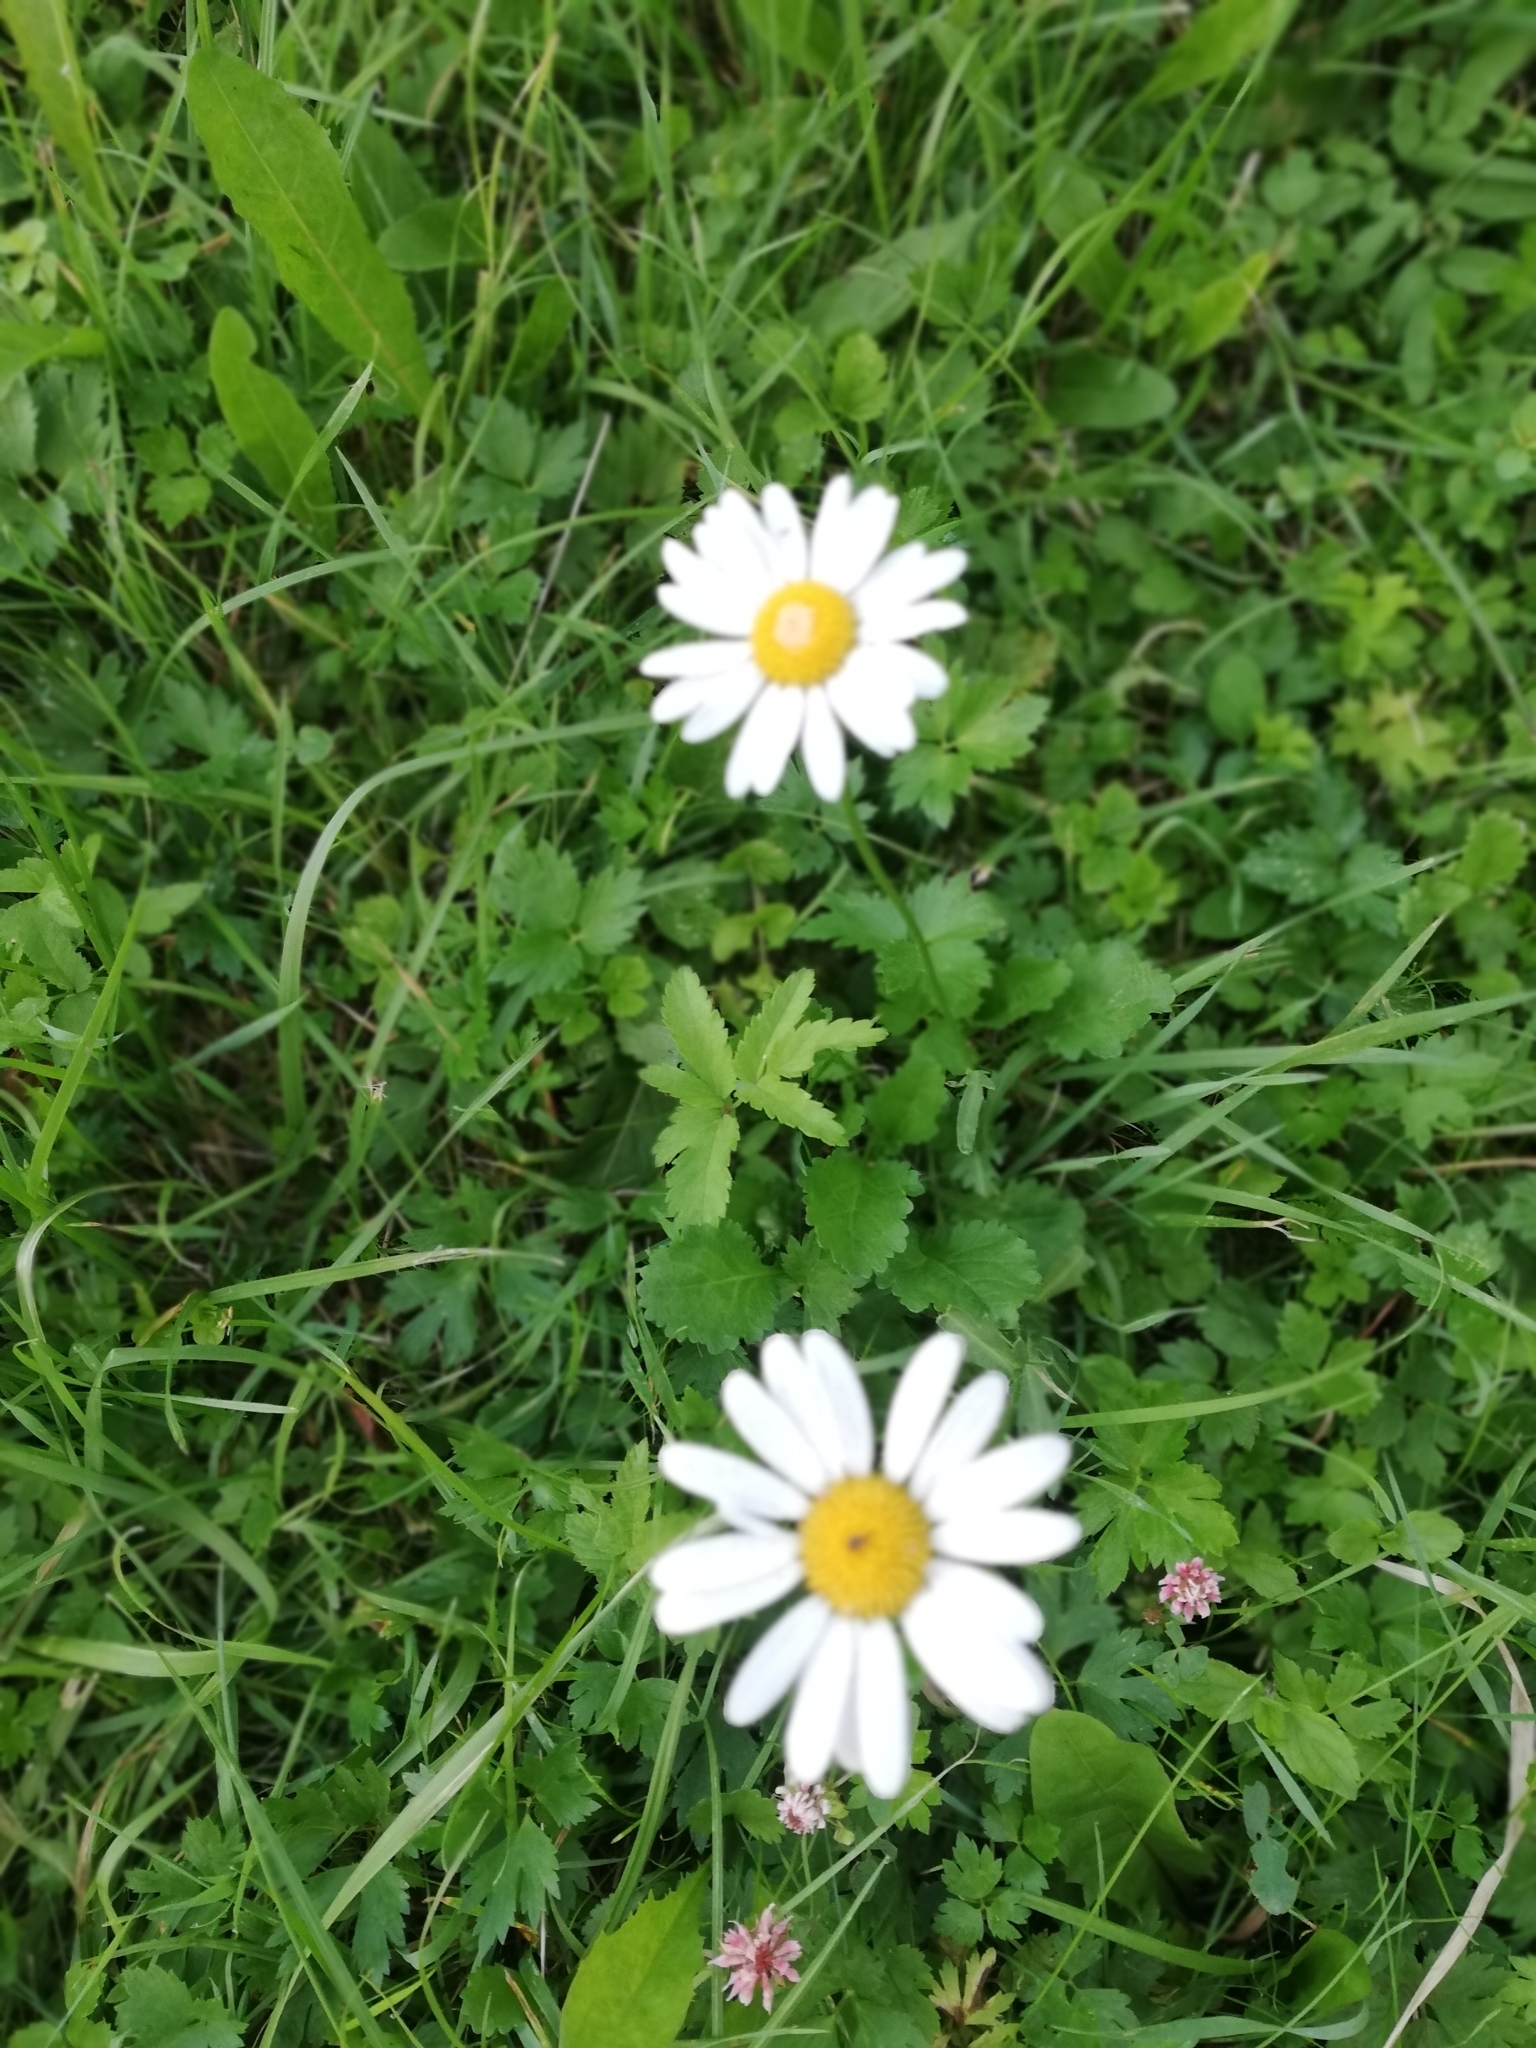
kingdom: Plantae
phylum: Tracheophyta
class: Magnoliopsida
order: Asterales
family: Asteraceae
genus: Leucanthemum
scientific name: Leucanthemum vulgare
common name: Oxeye daisy
